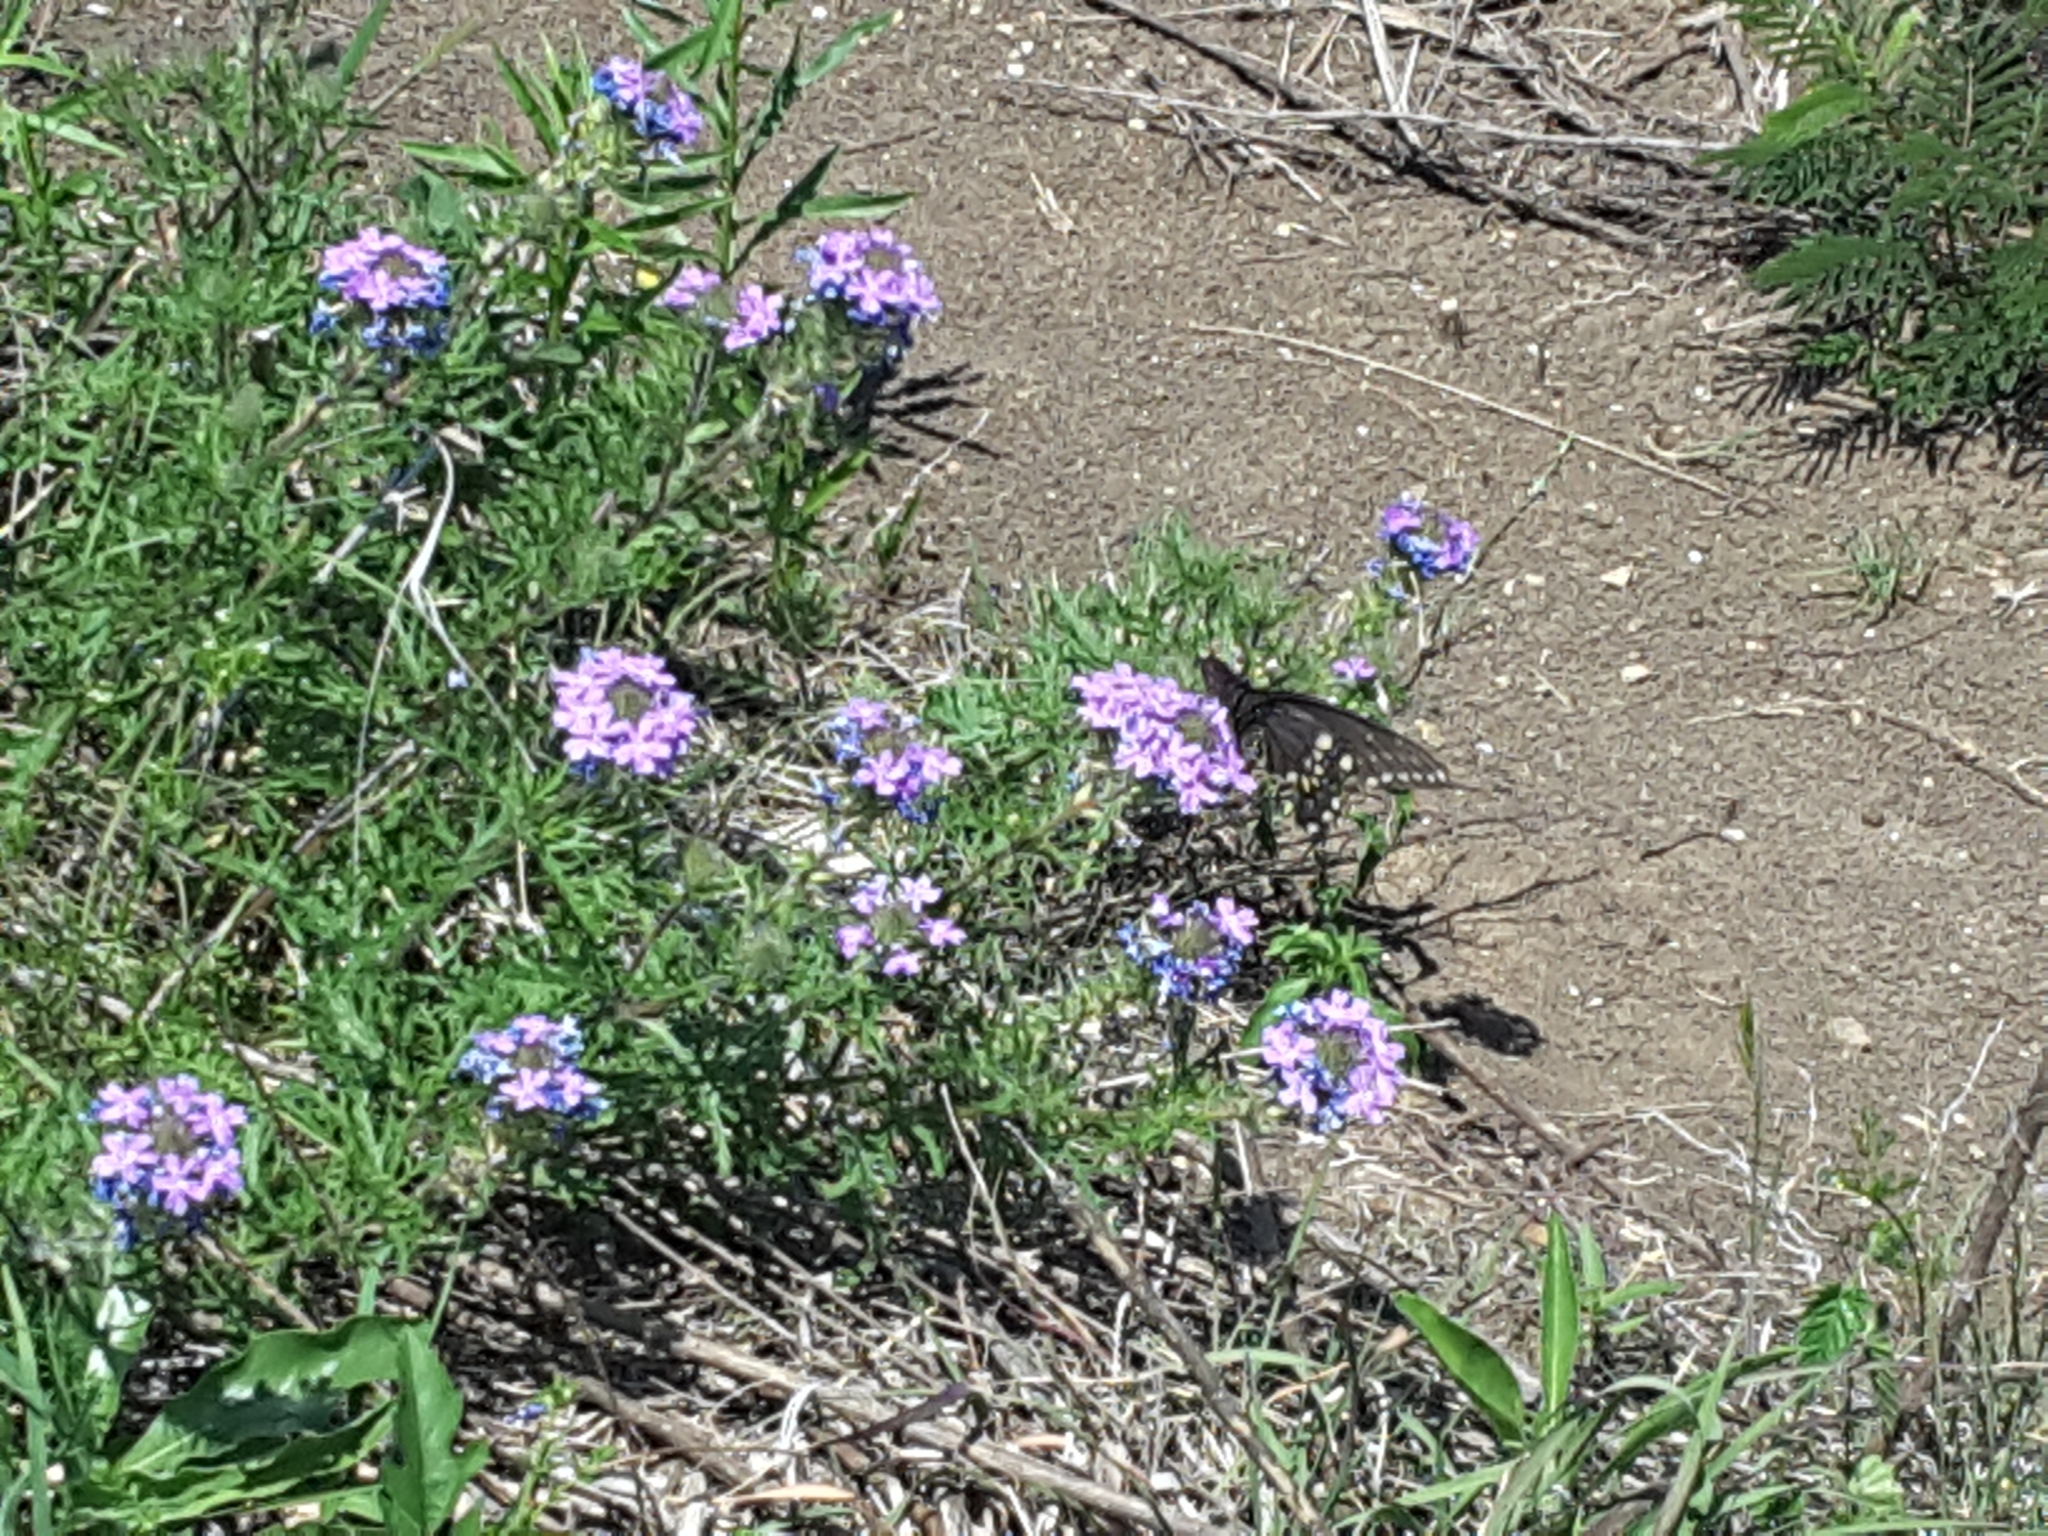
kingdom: Animalia
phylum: Arthropoda
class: Insecta
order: Lepidoptera
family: Papilionidae
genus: Papilio
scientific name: Papilio polyxenes
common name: Black swallowtail
